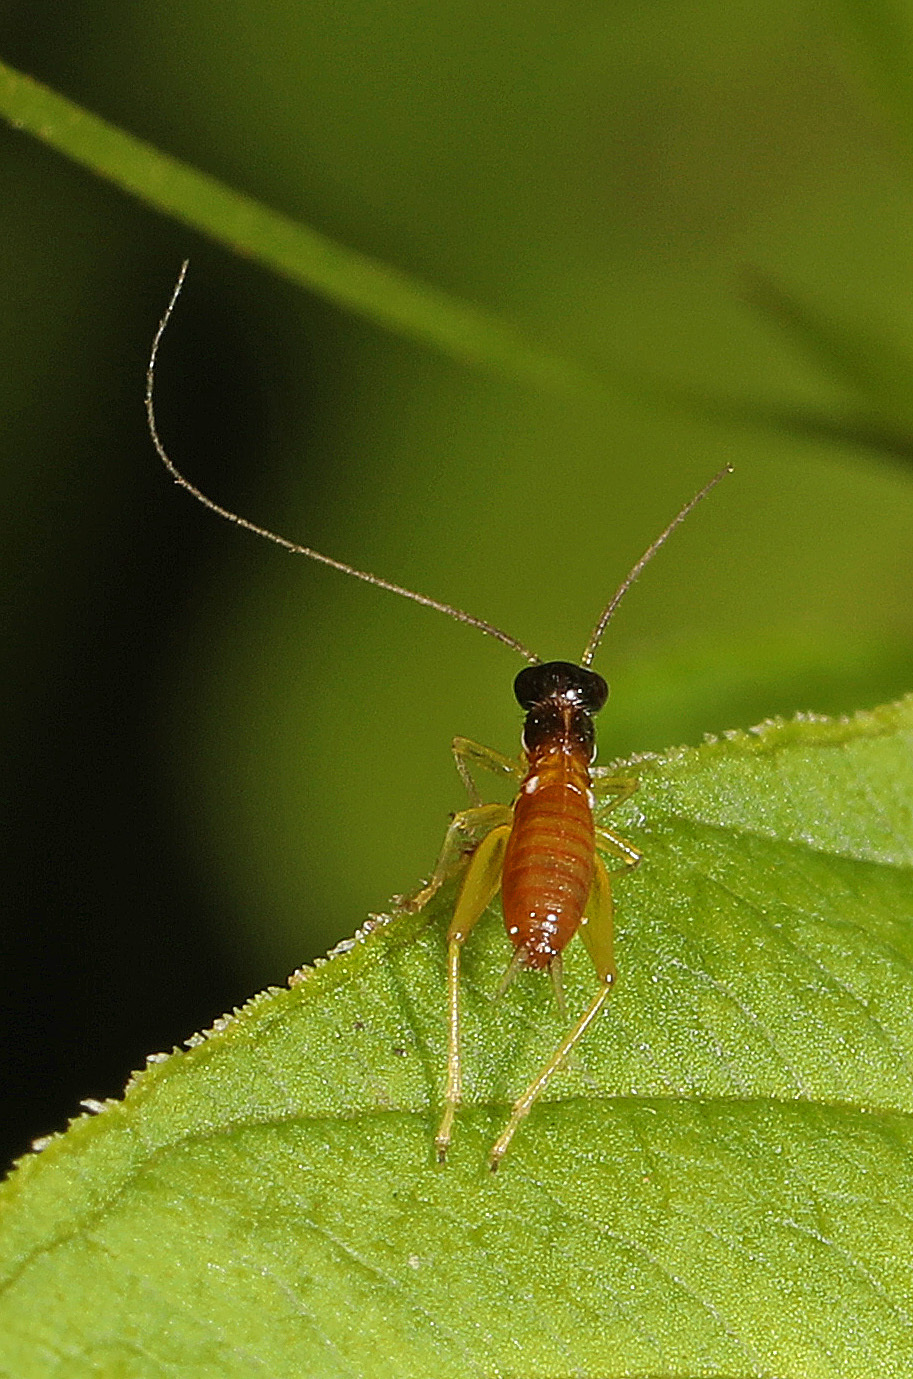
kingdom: Animalia
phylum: Arthropoda
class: Insecta
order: Orthoptera
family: Trigonidiidae
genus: Phyllopalpus
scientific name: Phyllopalpus pulchellus
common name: Handsome trig
